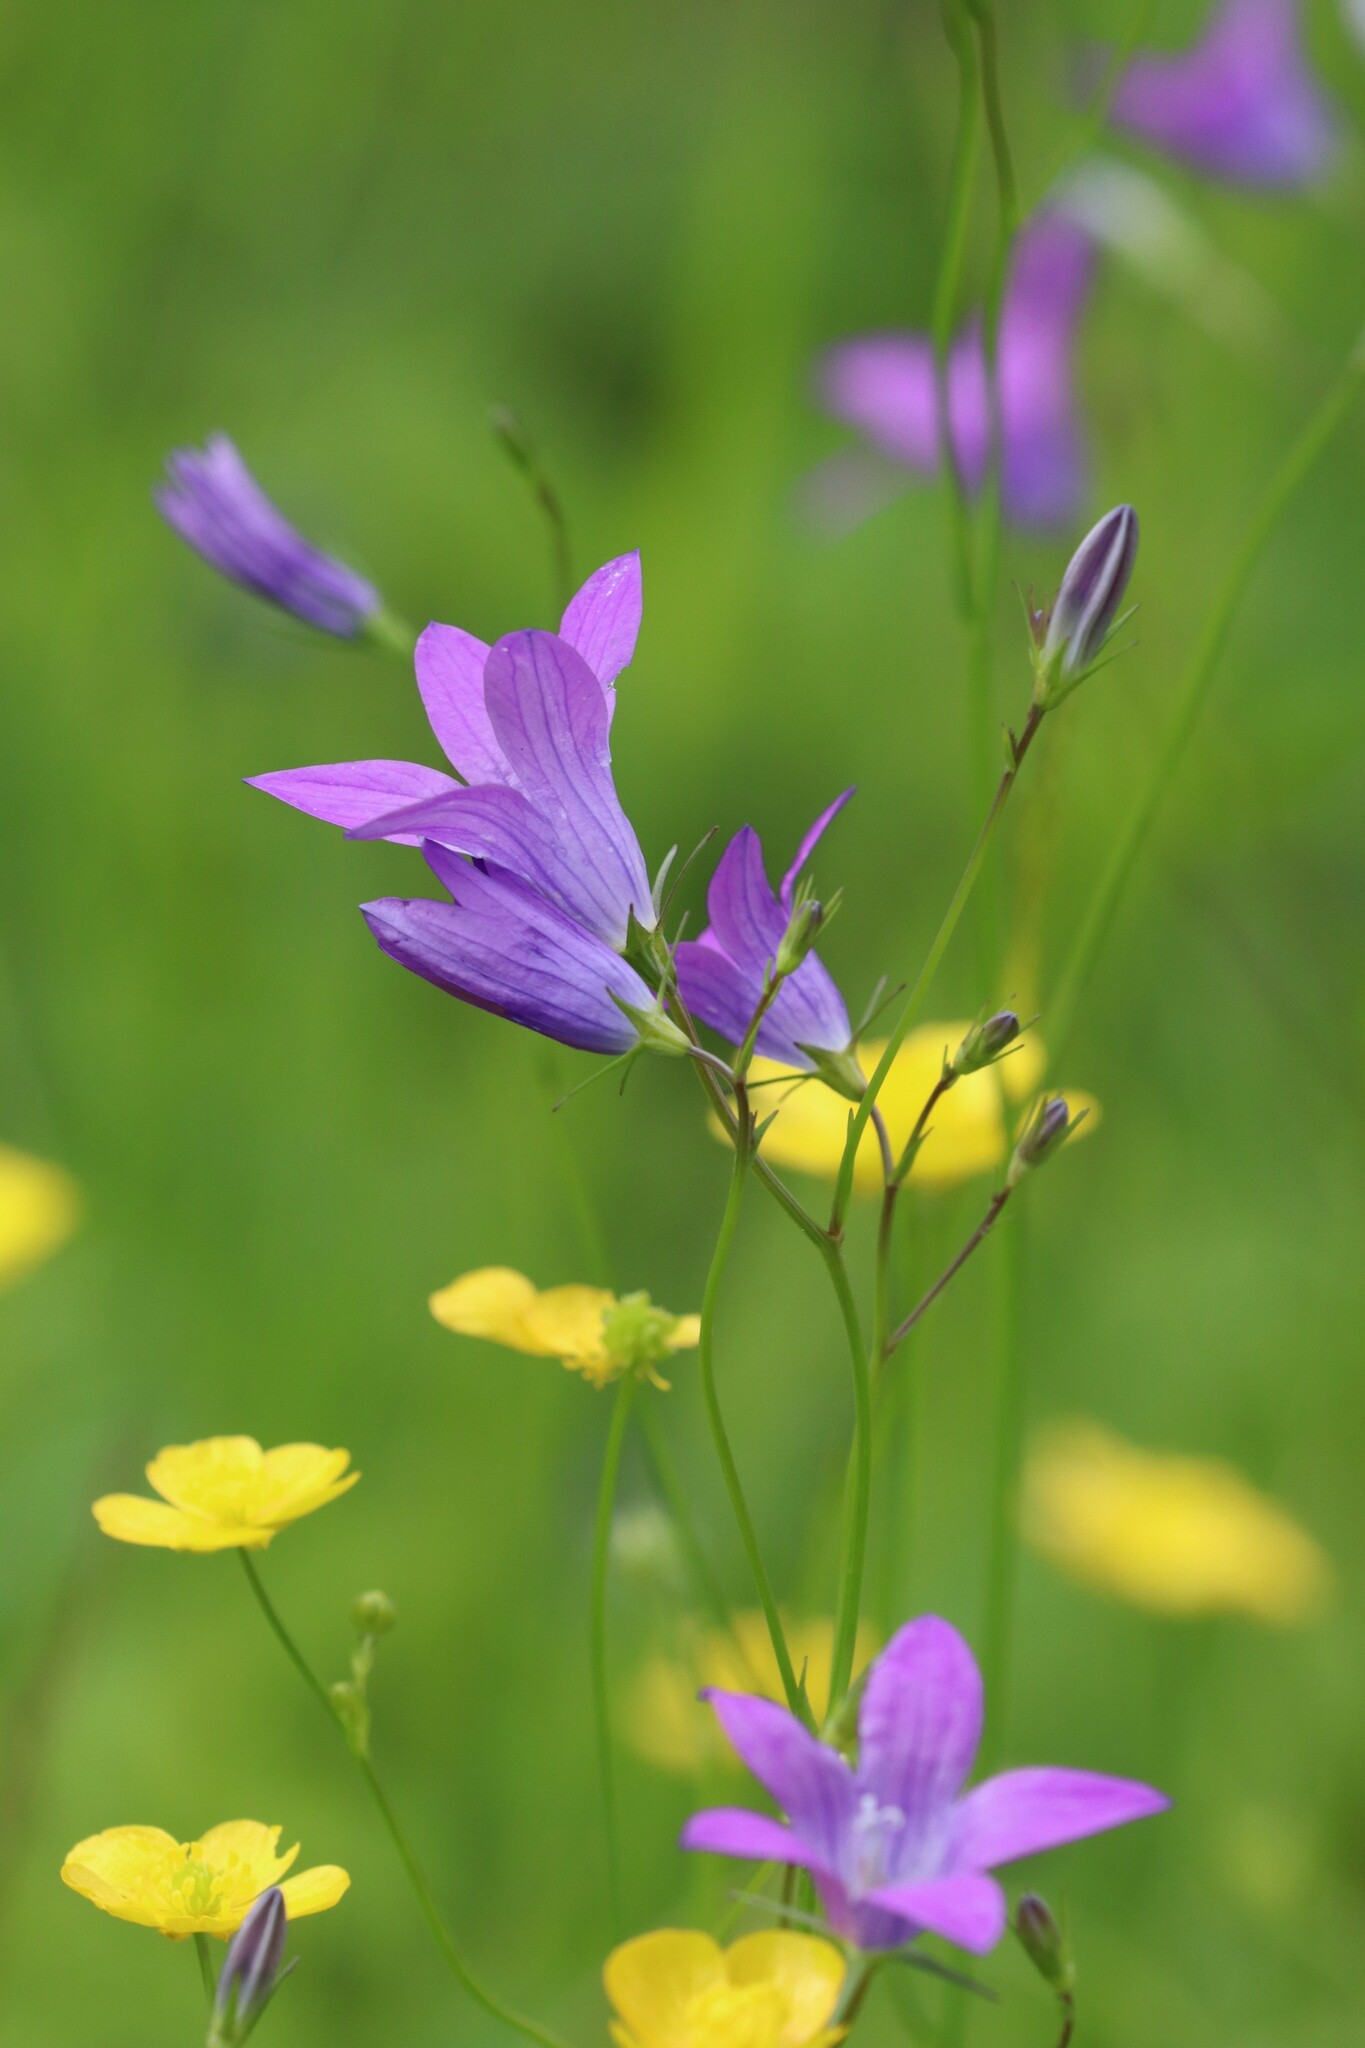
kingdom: Plantae
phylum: Tracheophyta
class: Magnoliopsida
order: Asterales
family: Campanulaceae
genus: Campanula
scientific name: Campanula patula
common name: Spreading bellflower
